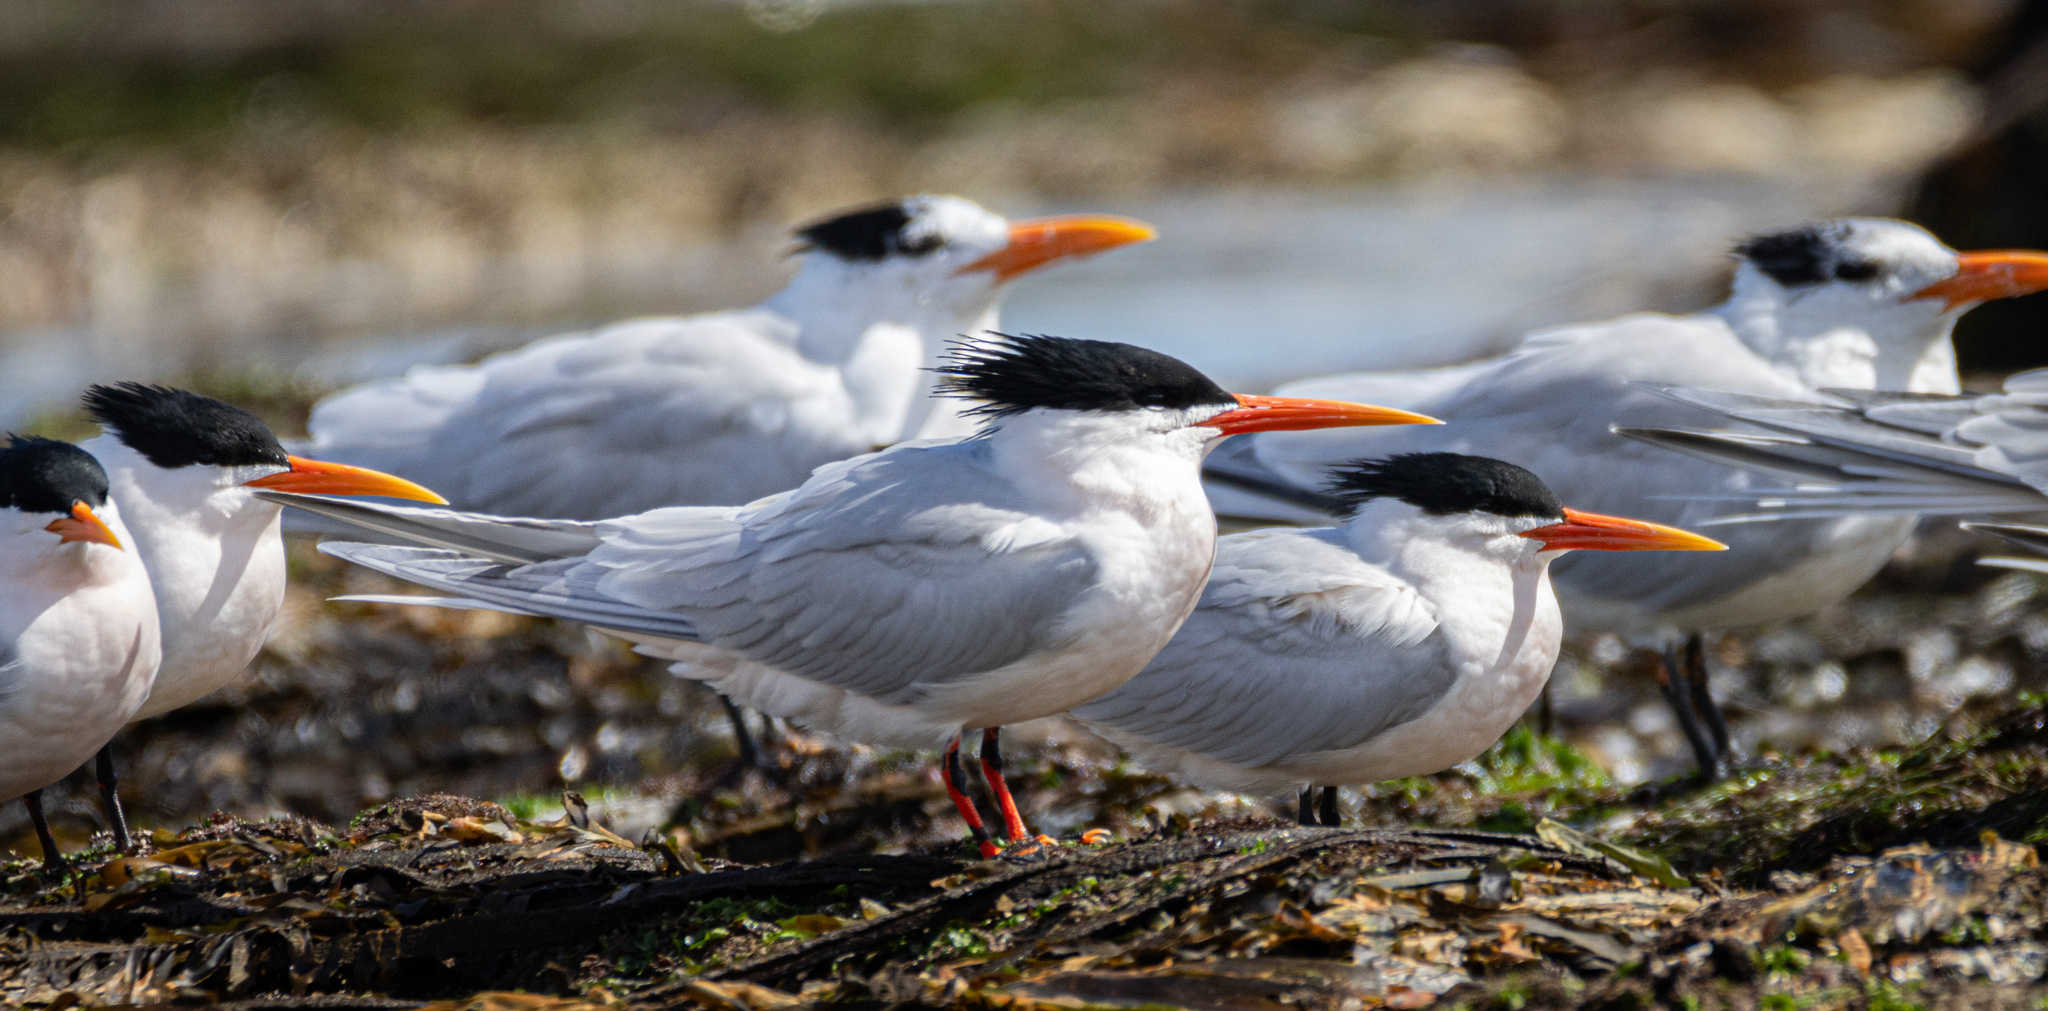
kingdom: Animalia
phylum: Chordata
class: Aves
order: Charadriiformes
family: Laridae
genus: Thalasseus
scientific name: Thalasseus elegans
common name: Elegant tern
